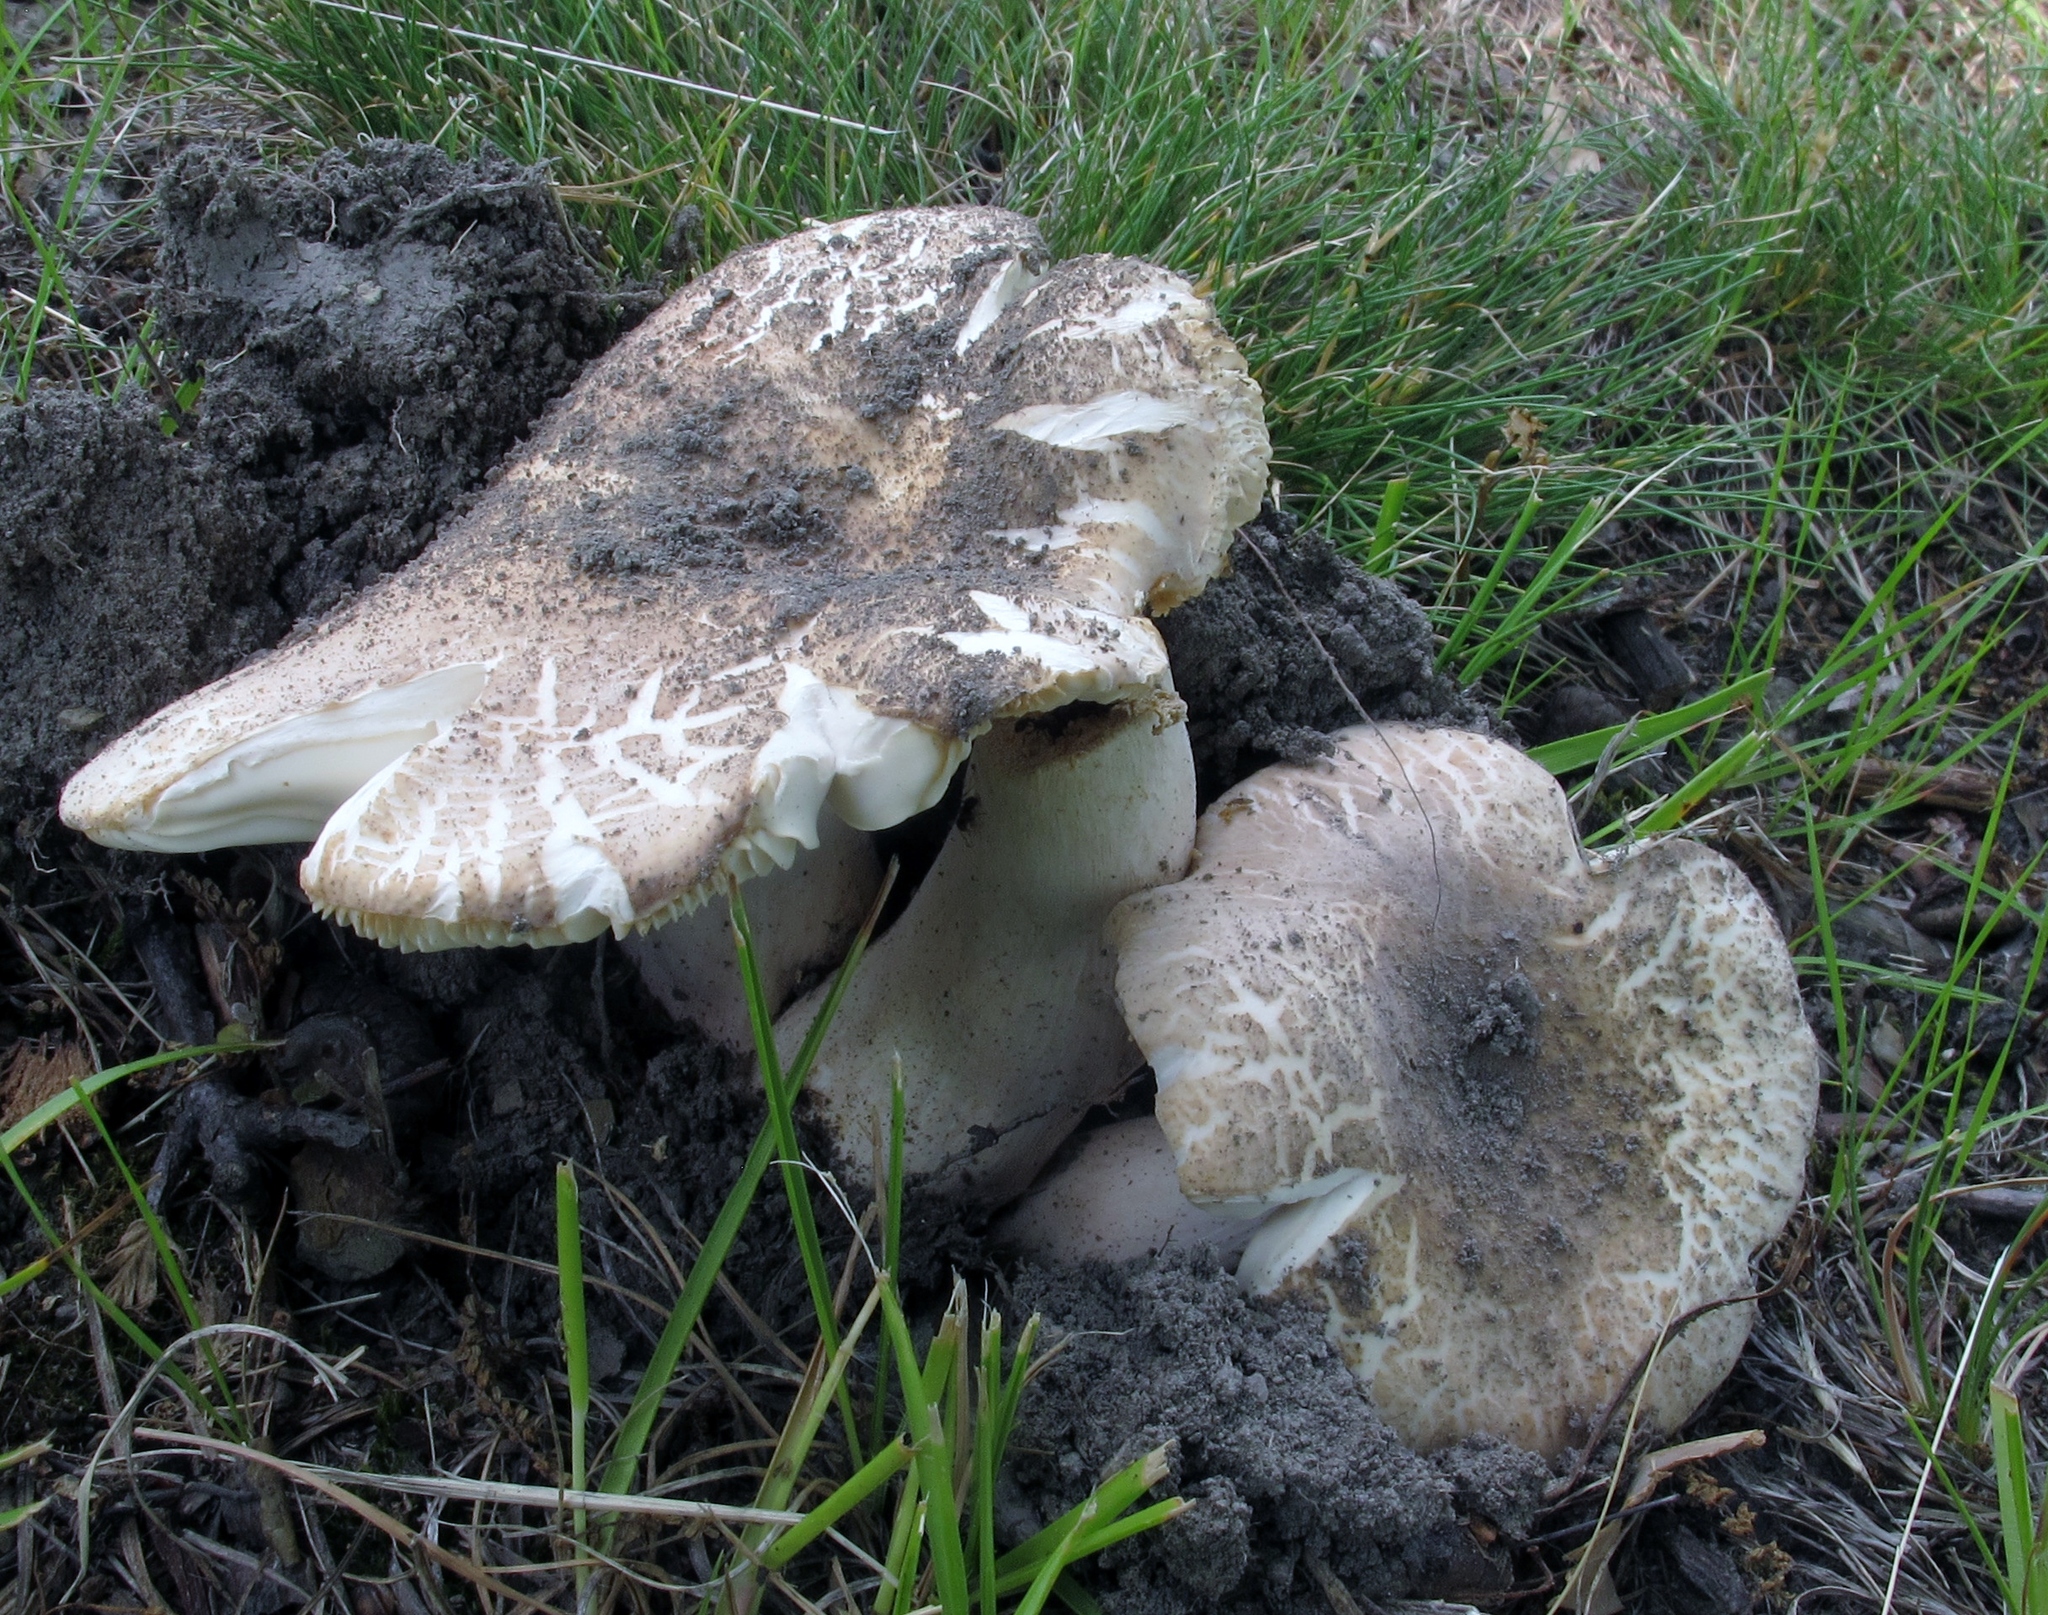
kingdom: Fungi
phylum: Basidiomycota
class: Agaricomycetes
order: Russulales
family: Russulaceae
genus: Russula
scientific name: Russula crustosa
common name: Green quilt russula
